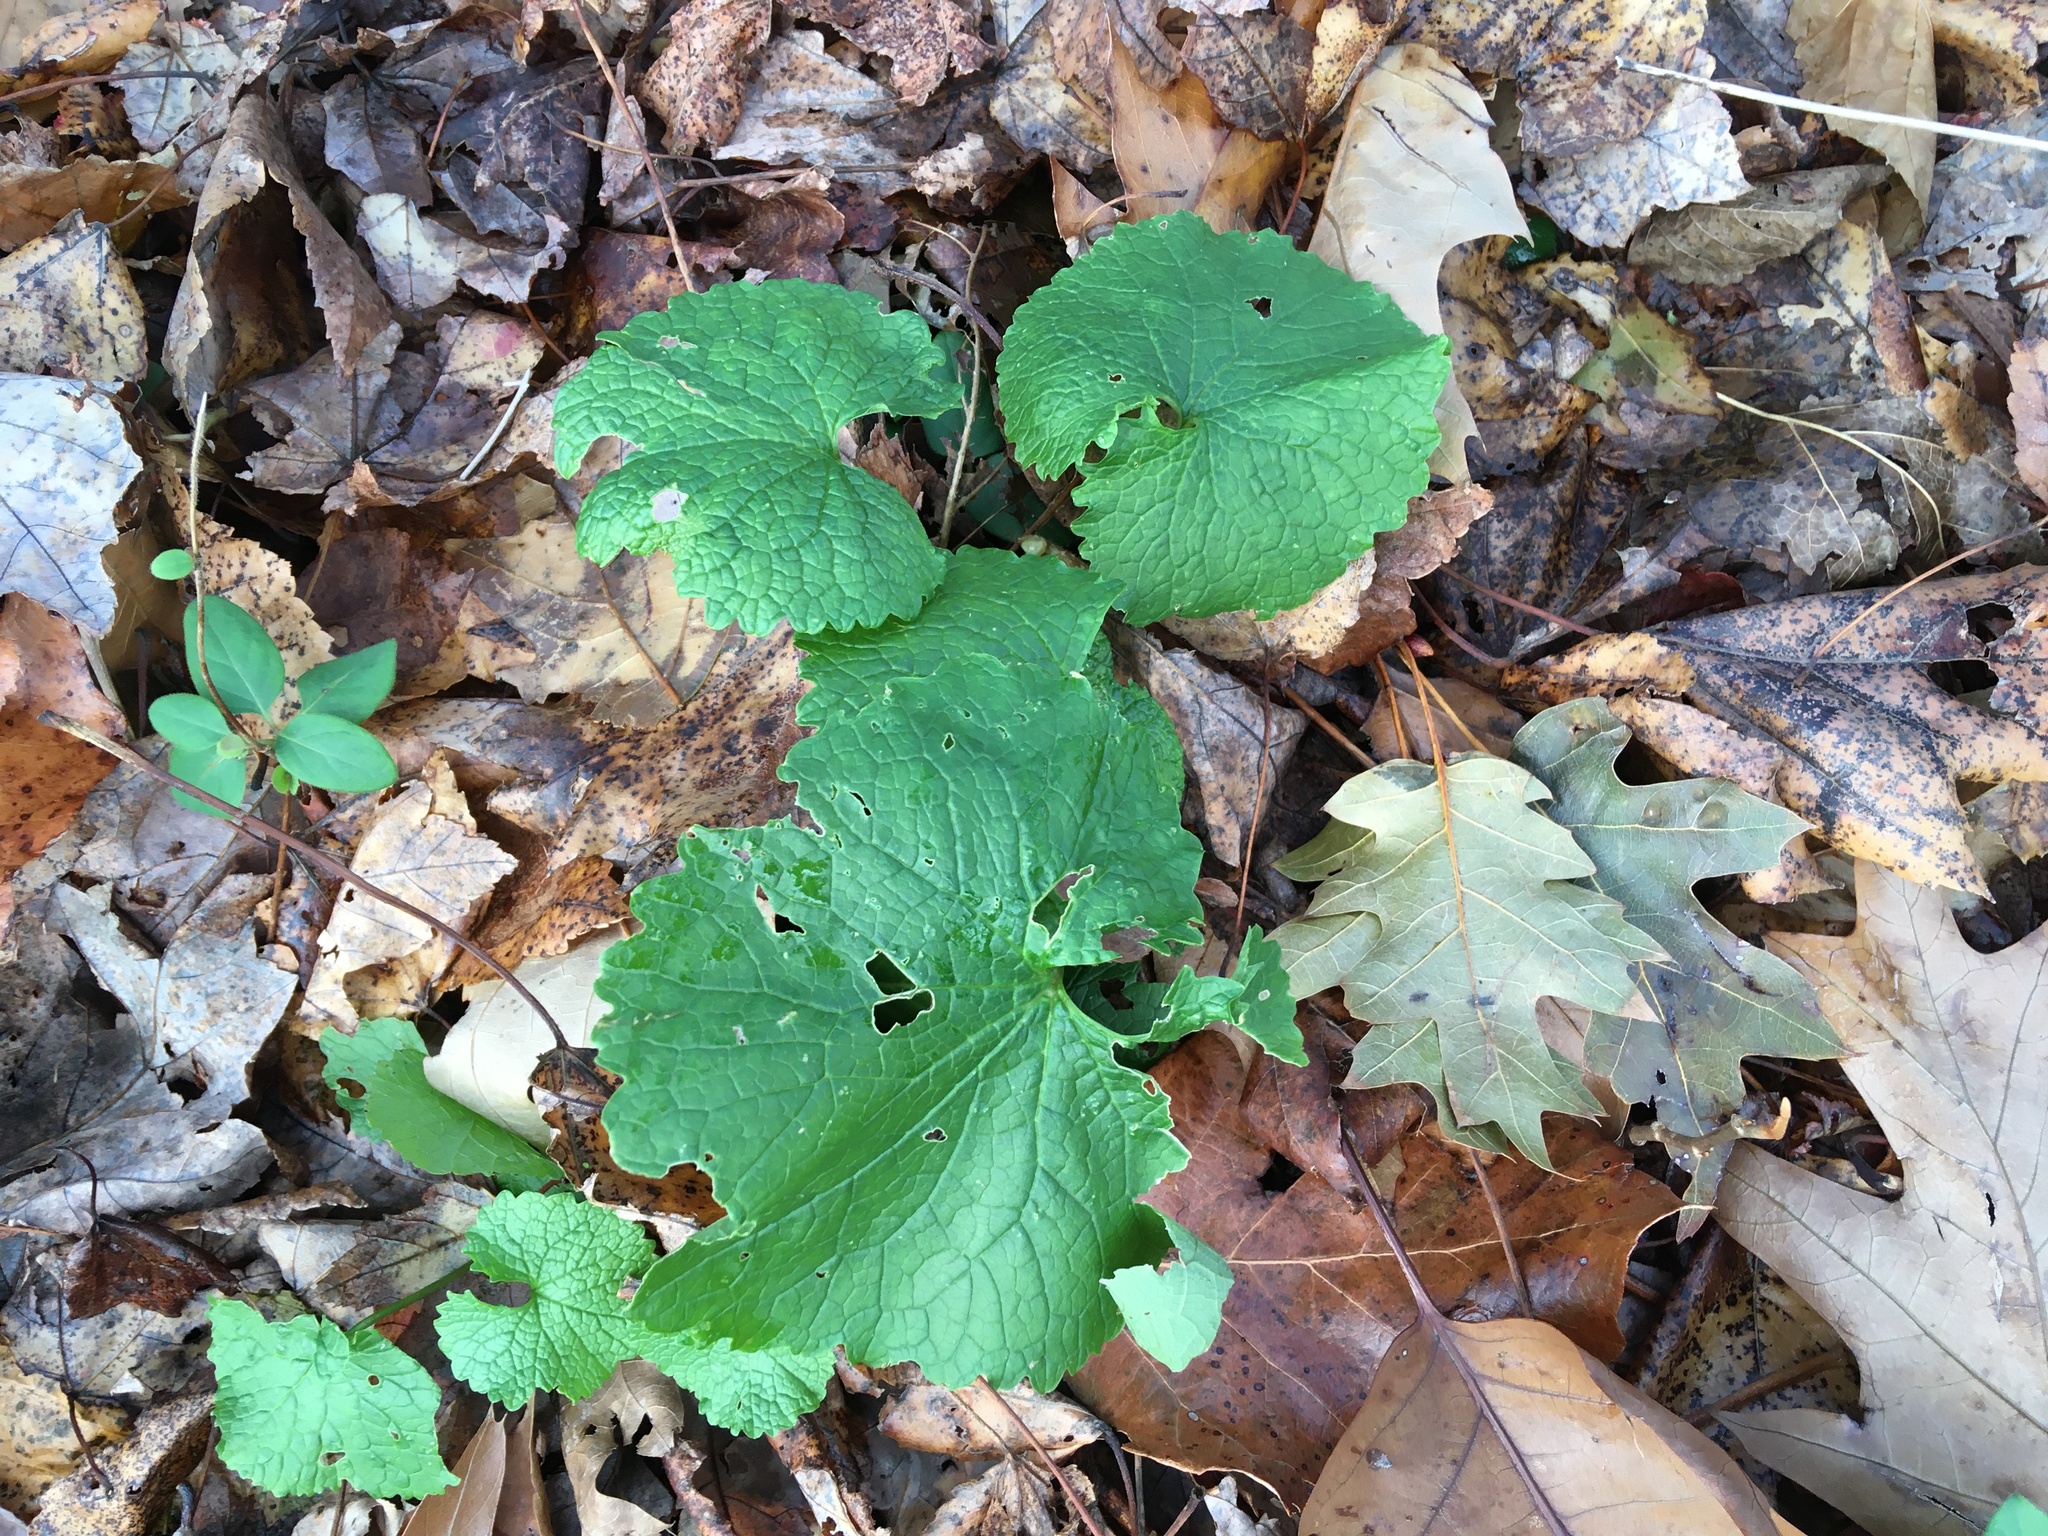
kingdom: Plantae
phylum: Tracheophyta
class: Magnoliopsida
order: Brassicales
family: Brassicaceae
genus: Alliaria
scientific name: Alliaria petiolata
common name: Garlic mustard
